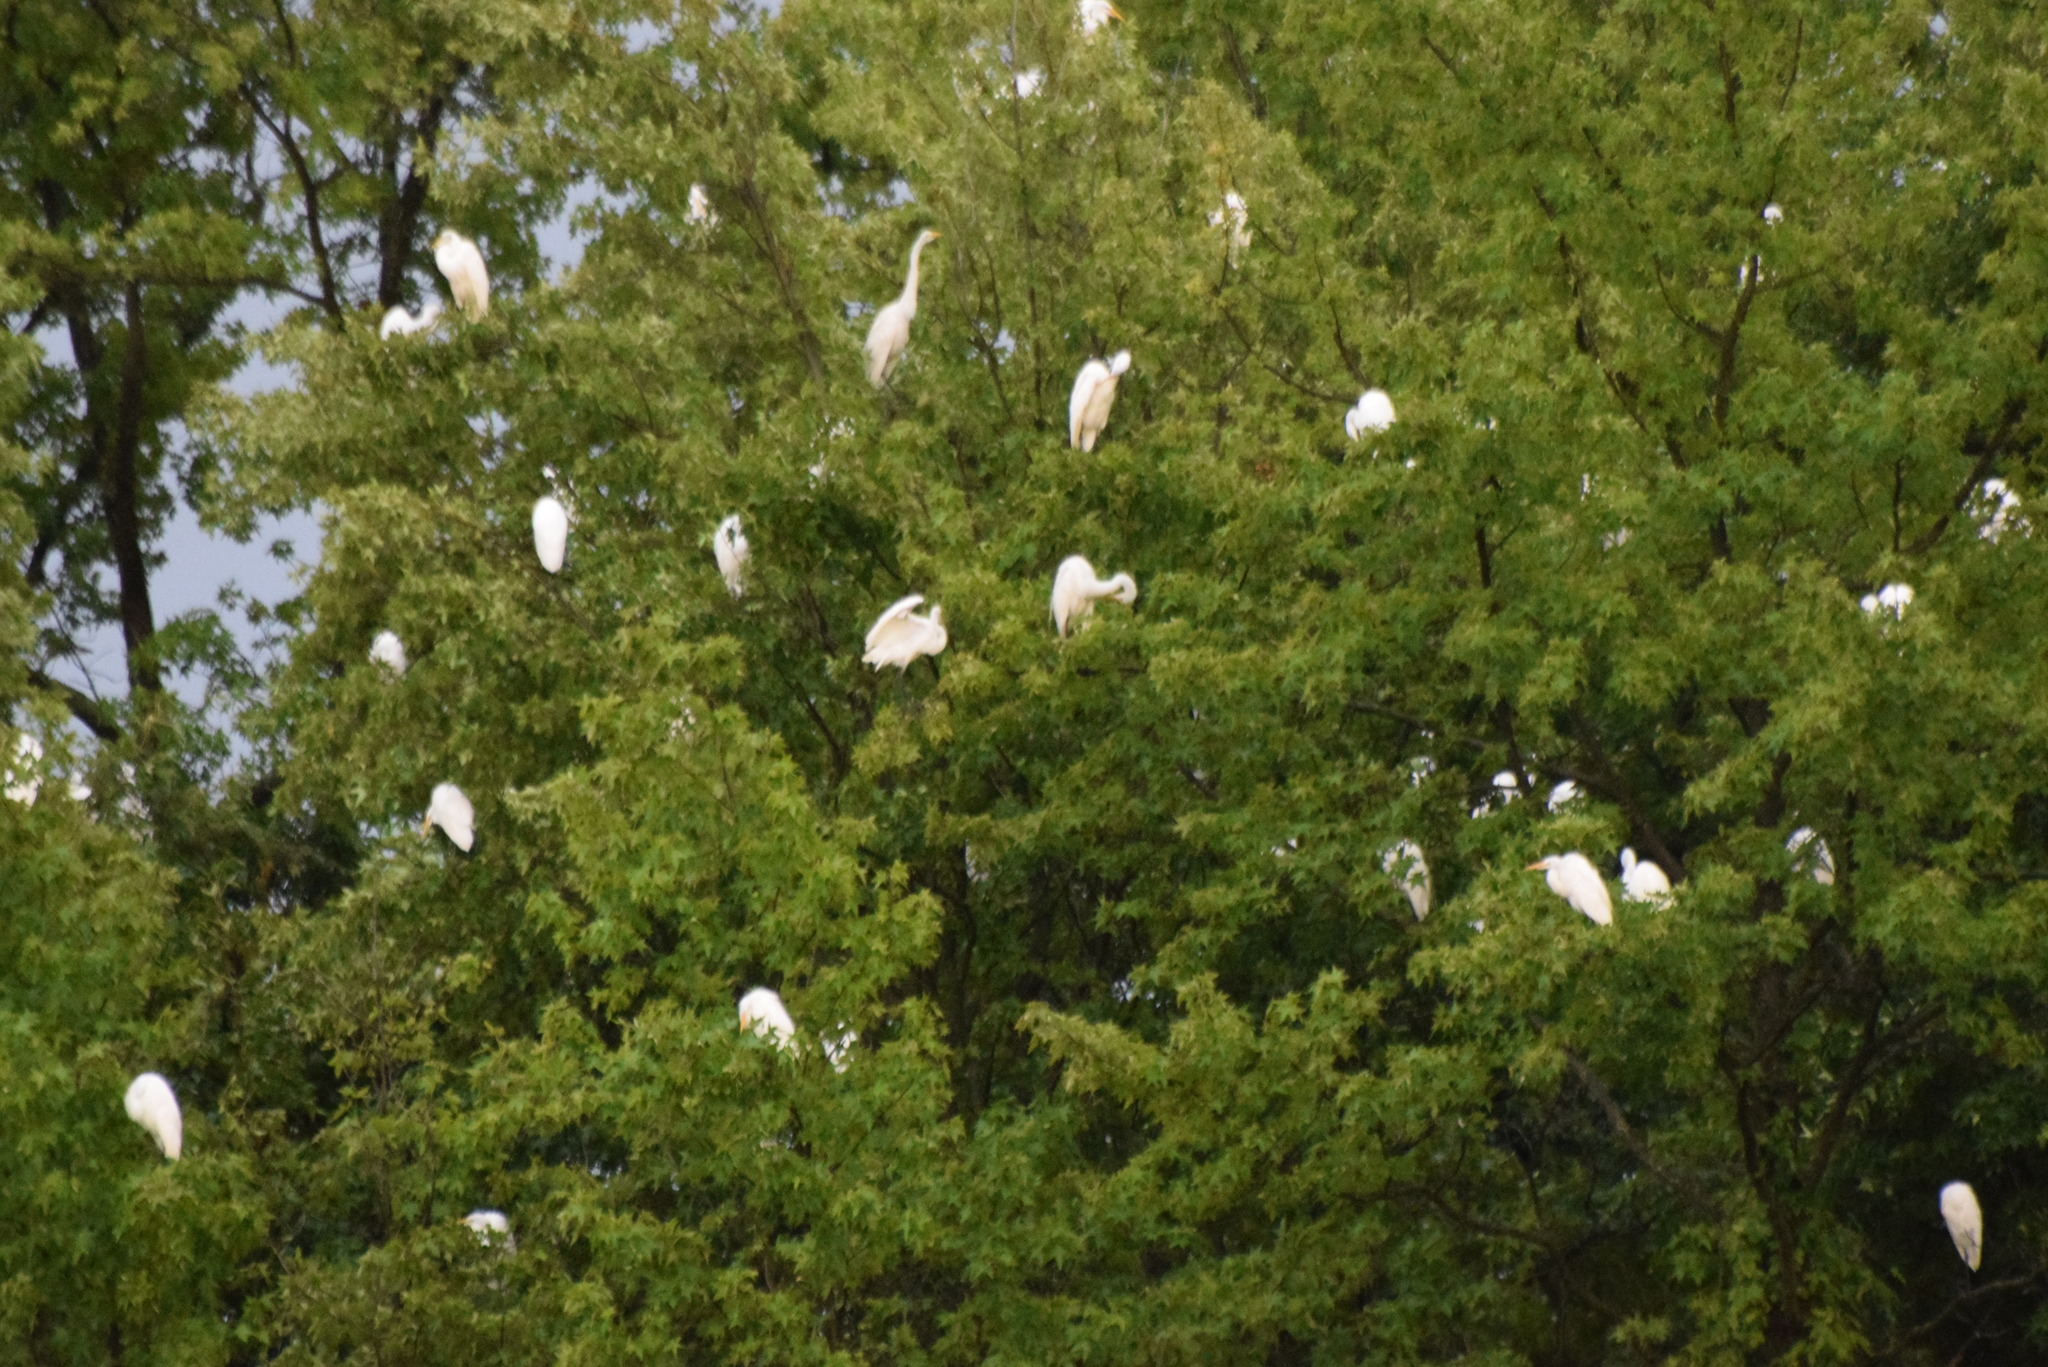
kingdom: Animalia
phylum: Chordata
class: Aves
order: Pelecaniformes
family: Ardeidae
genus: Ardea
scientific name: Ardea alba
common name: Great egret
